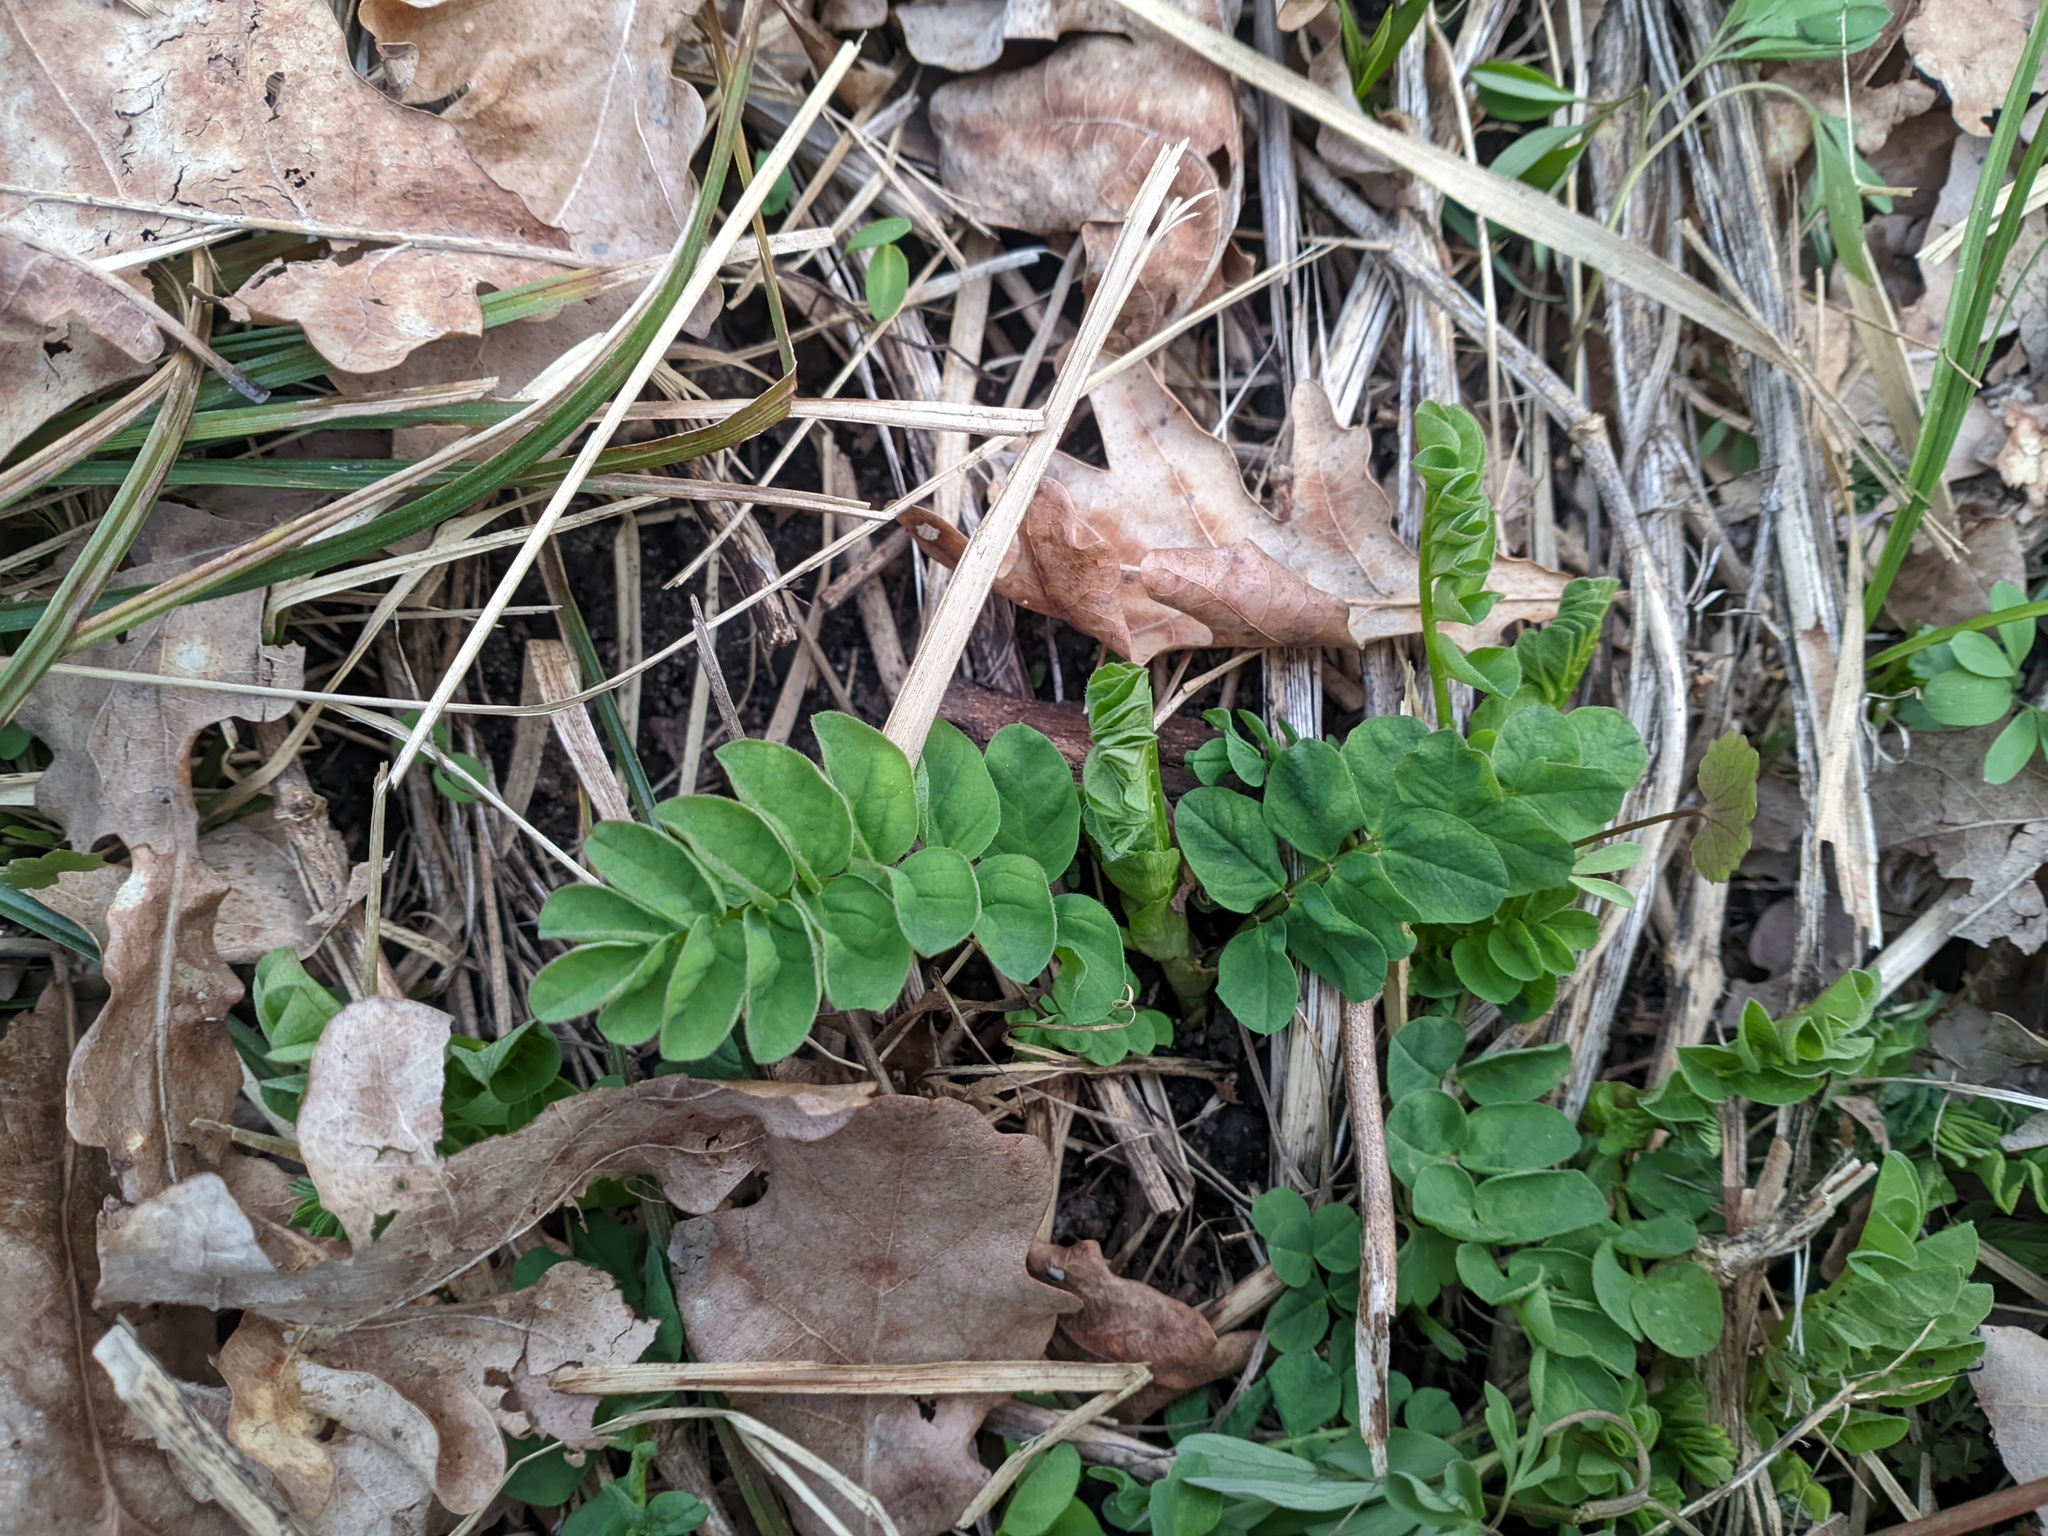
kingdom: Plantae
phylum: Tracheophyta
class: Magnoliopsida
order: Fabales
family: Fabaceae
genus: Astragalus
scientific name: Astragalus glycyphyllos
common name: Wild liquorice
